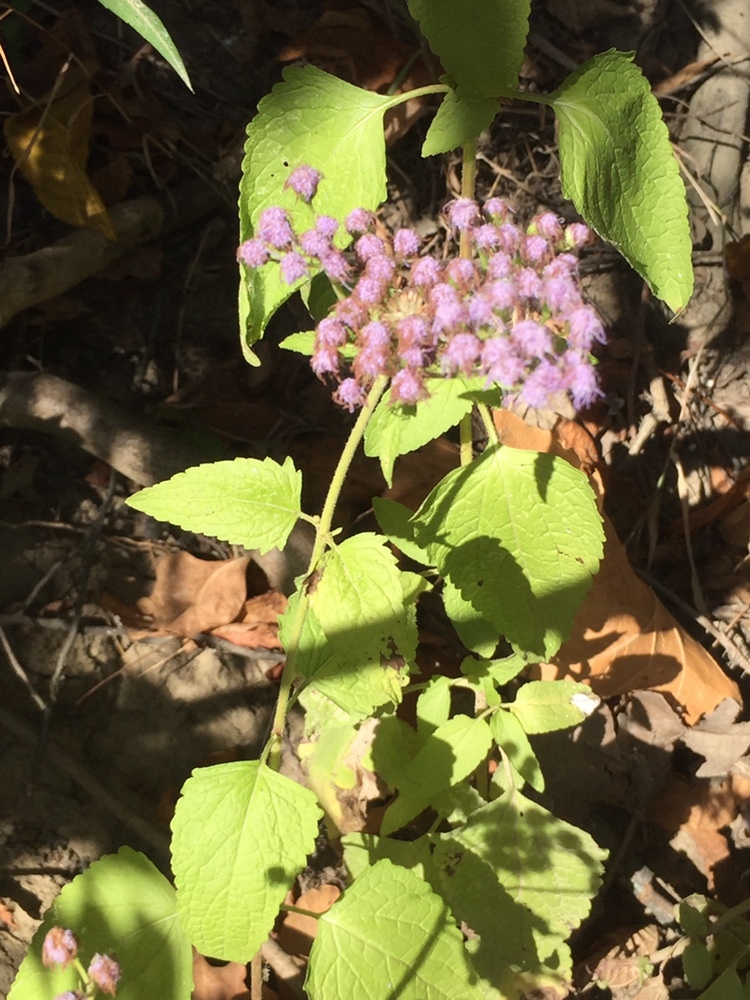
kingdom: Plantae
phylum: Tracheophyta
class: Magnoliopsida
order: Asterales
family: Asteraceae
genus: Conoclinium
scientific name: Conoclinium coelestinum
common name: Blue mistflower
